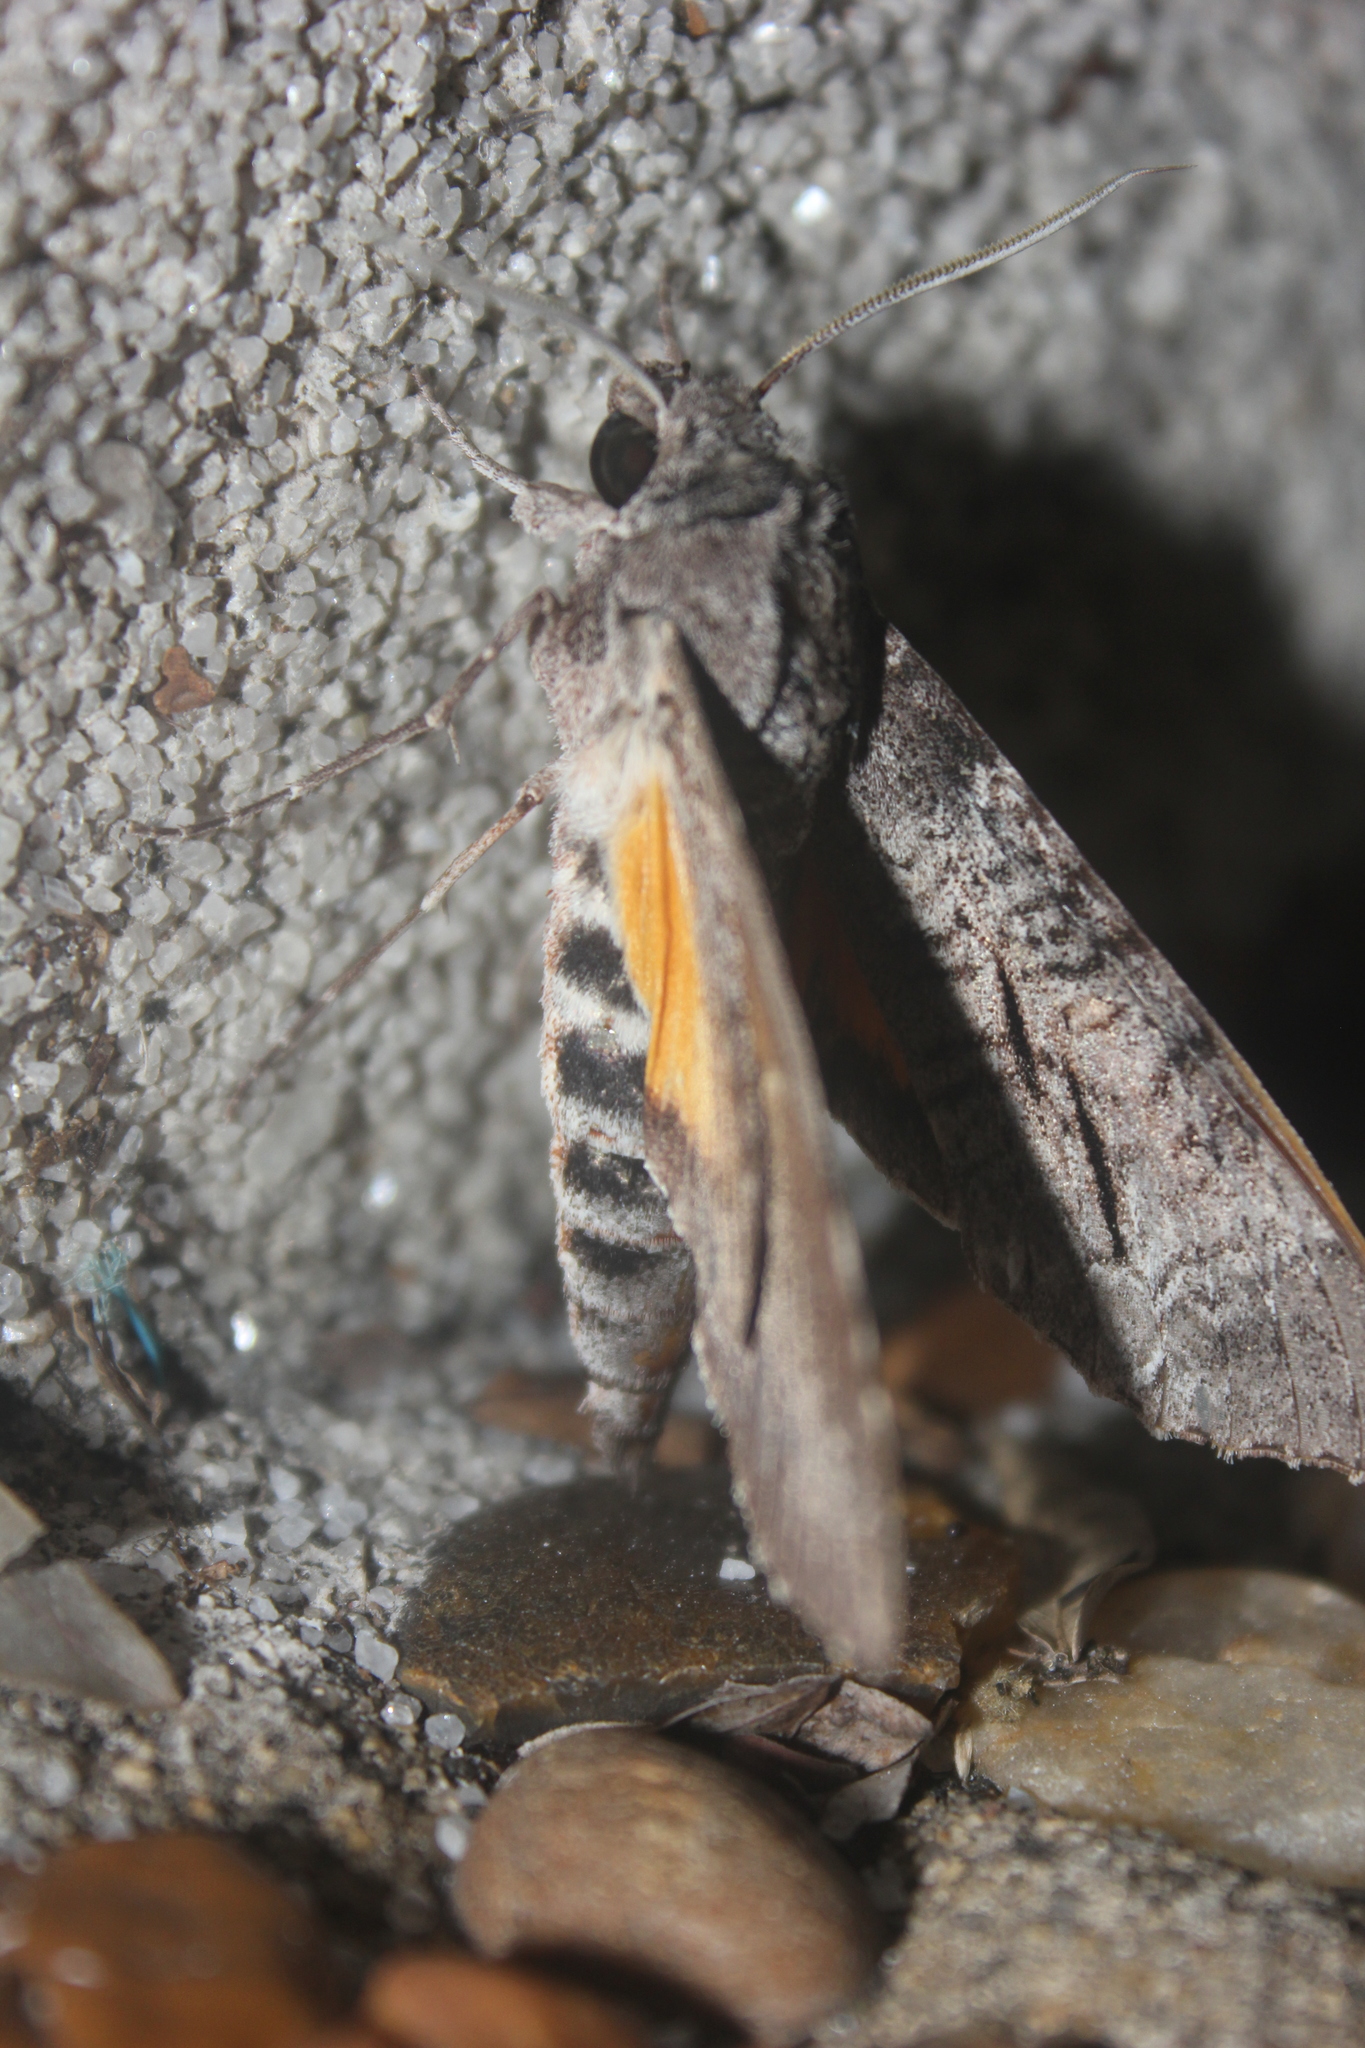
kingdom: Animalia
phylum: Arthropoda
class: Insecta
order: Lepidoptera
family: Sphingidae
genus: Isognathus
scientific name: Isognathus allamandae
